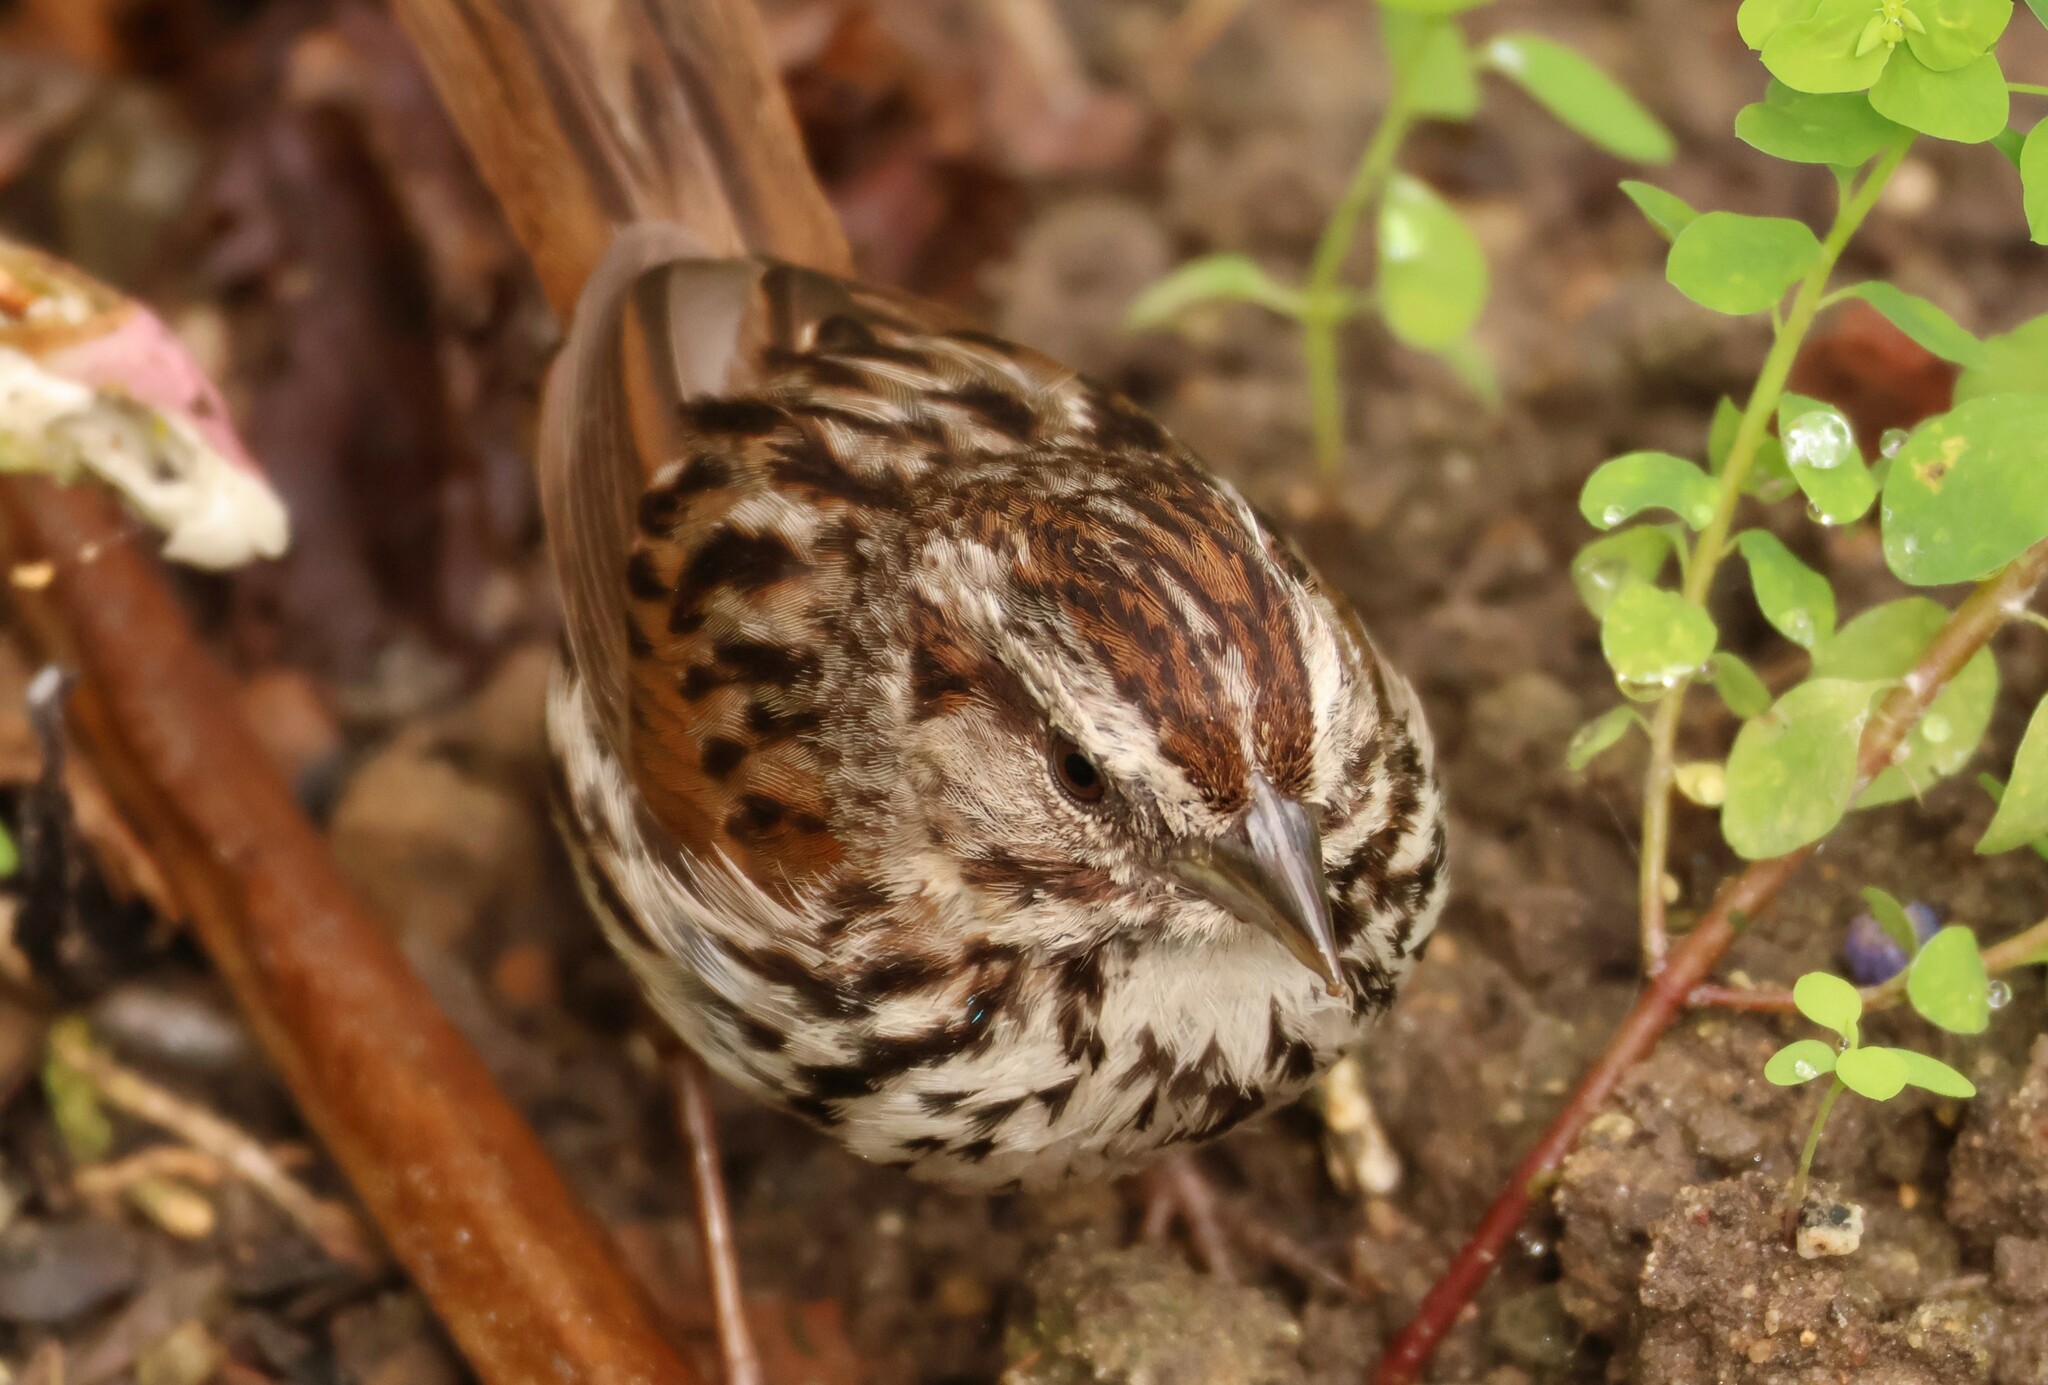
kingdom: Animalia
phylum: Chordata
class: Aves
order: Passeriformes
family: Passerellidae
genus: Melospiza
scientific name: Melospiza melodia
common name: Song sparrow
